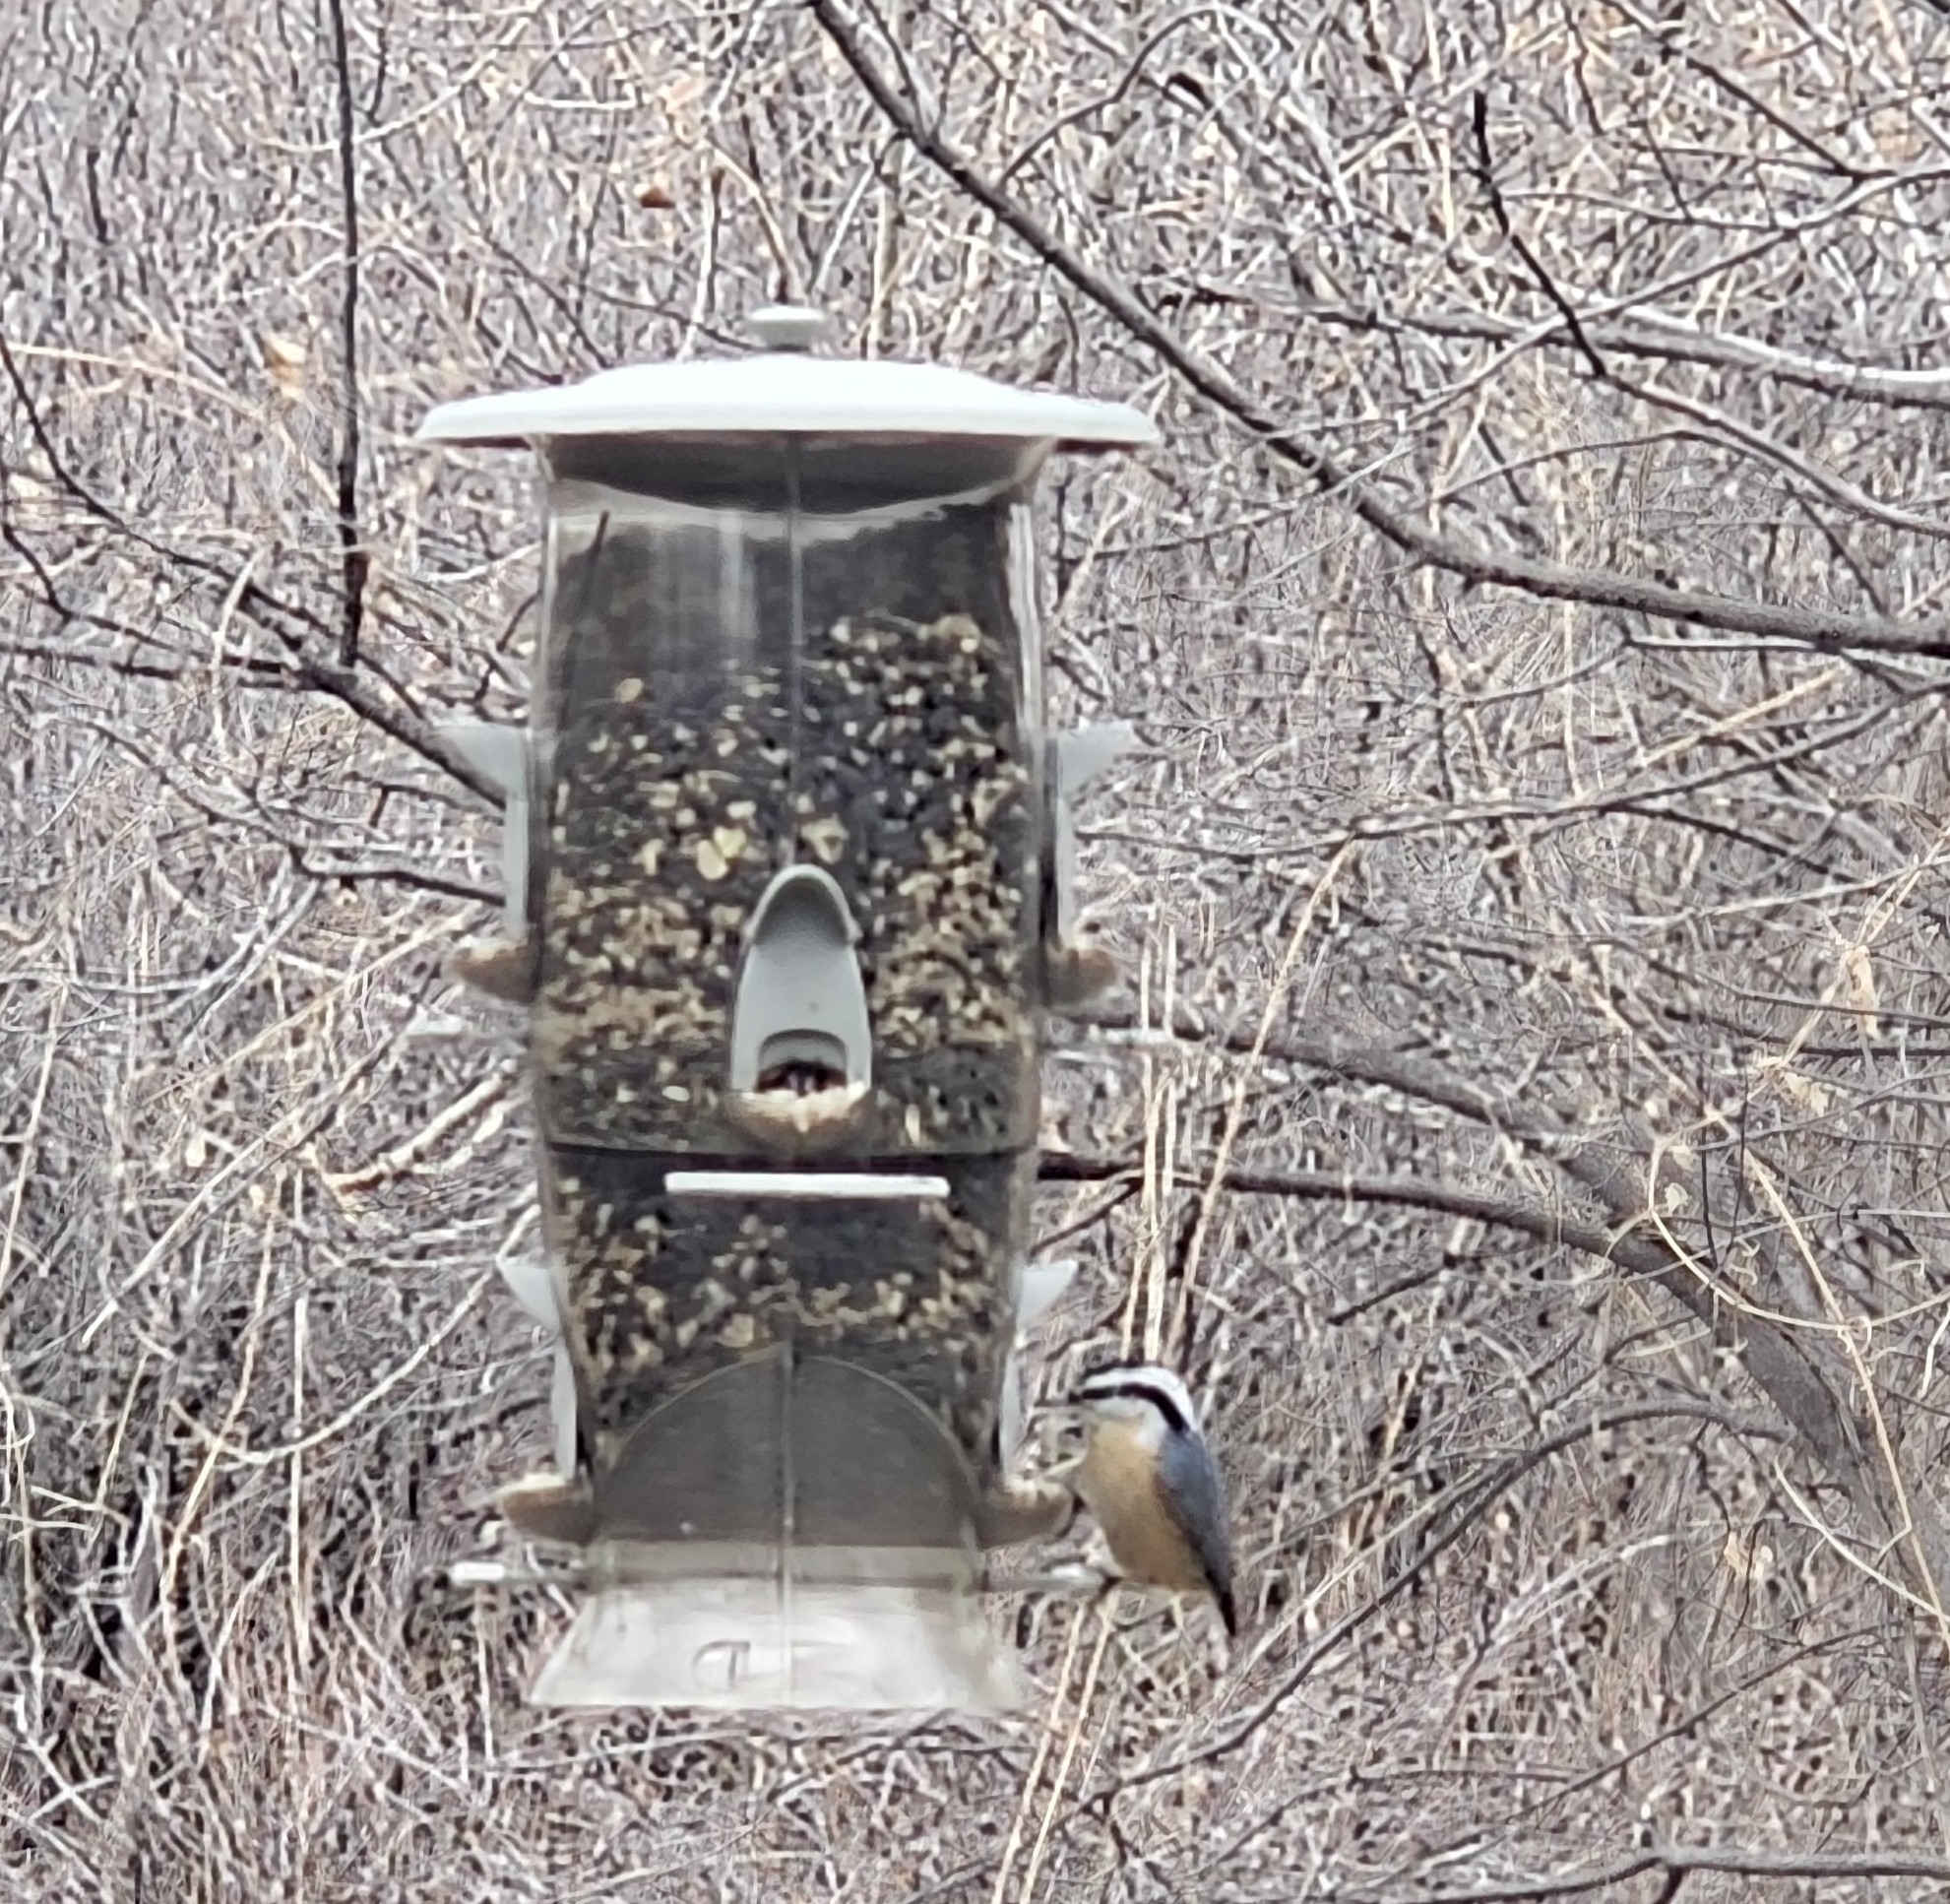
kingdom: Animalia
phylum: Chordata
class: Aves
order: Passeriformes
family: Sittidae
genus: Sitta
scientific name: Sitta canadensis
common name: Red-breasted nuthatch
